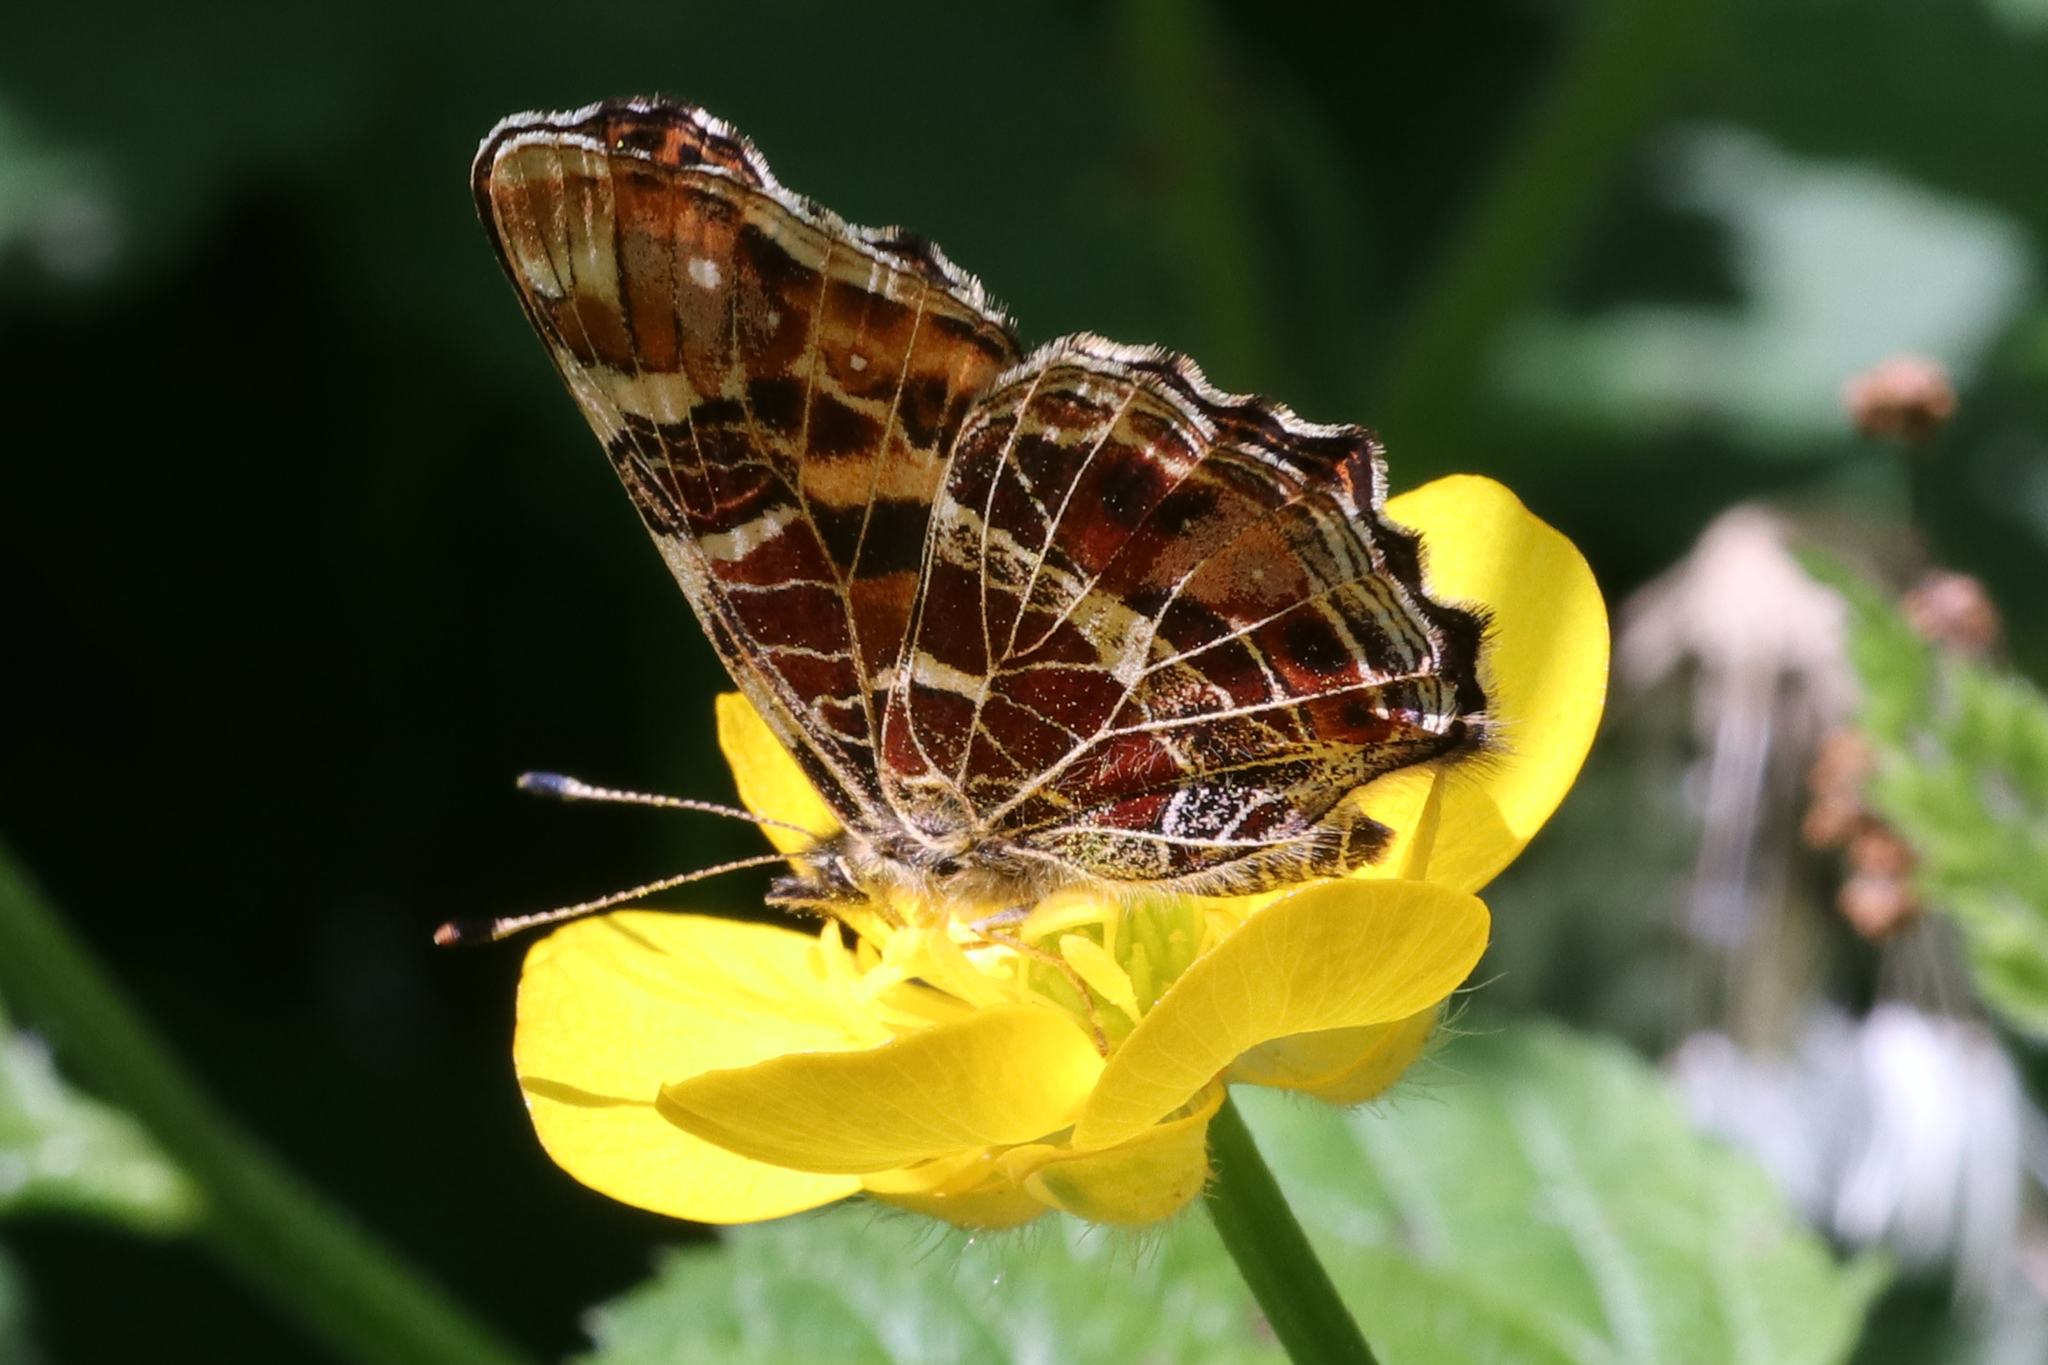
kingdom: Animalia
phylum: Arthropoda
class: Insecta
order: Lepidoptera
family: Nymphalidae
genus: Araschnia
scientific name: Araschnia levana
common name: Map butterfly
